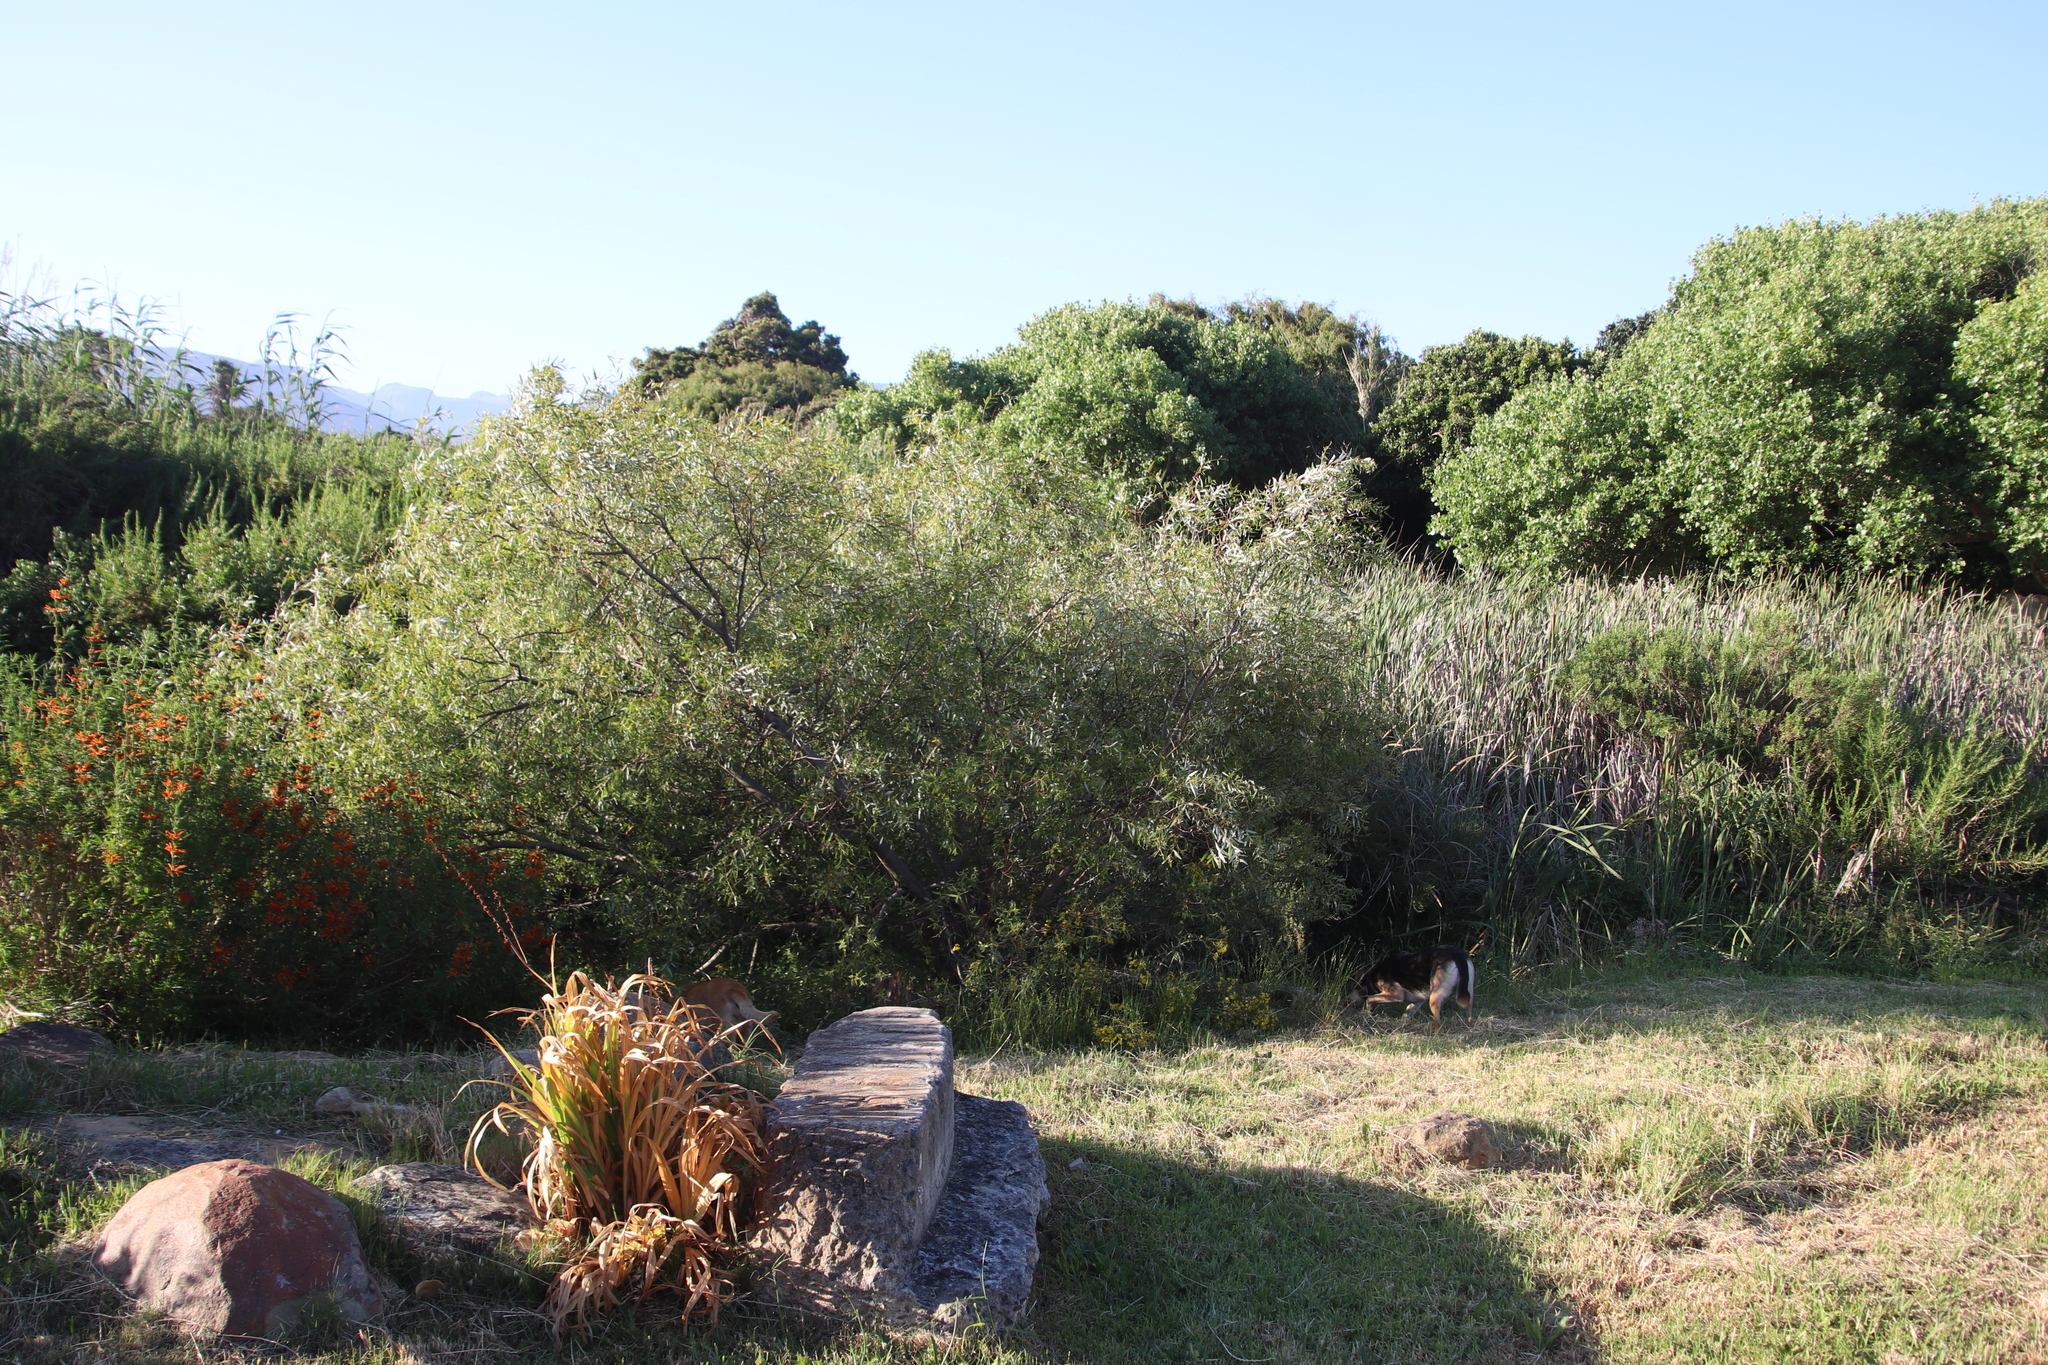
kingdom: Plantae
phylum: Tracheophyta
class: Liliopsida
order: Asparagales
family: Iridaceae
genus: Chasmanthe
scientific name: Chasmanthe floribunda
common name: African cornflag
